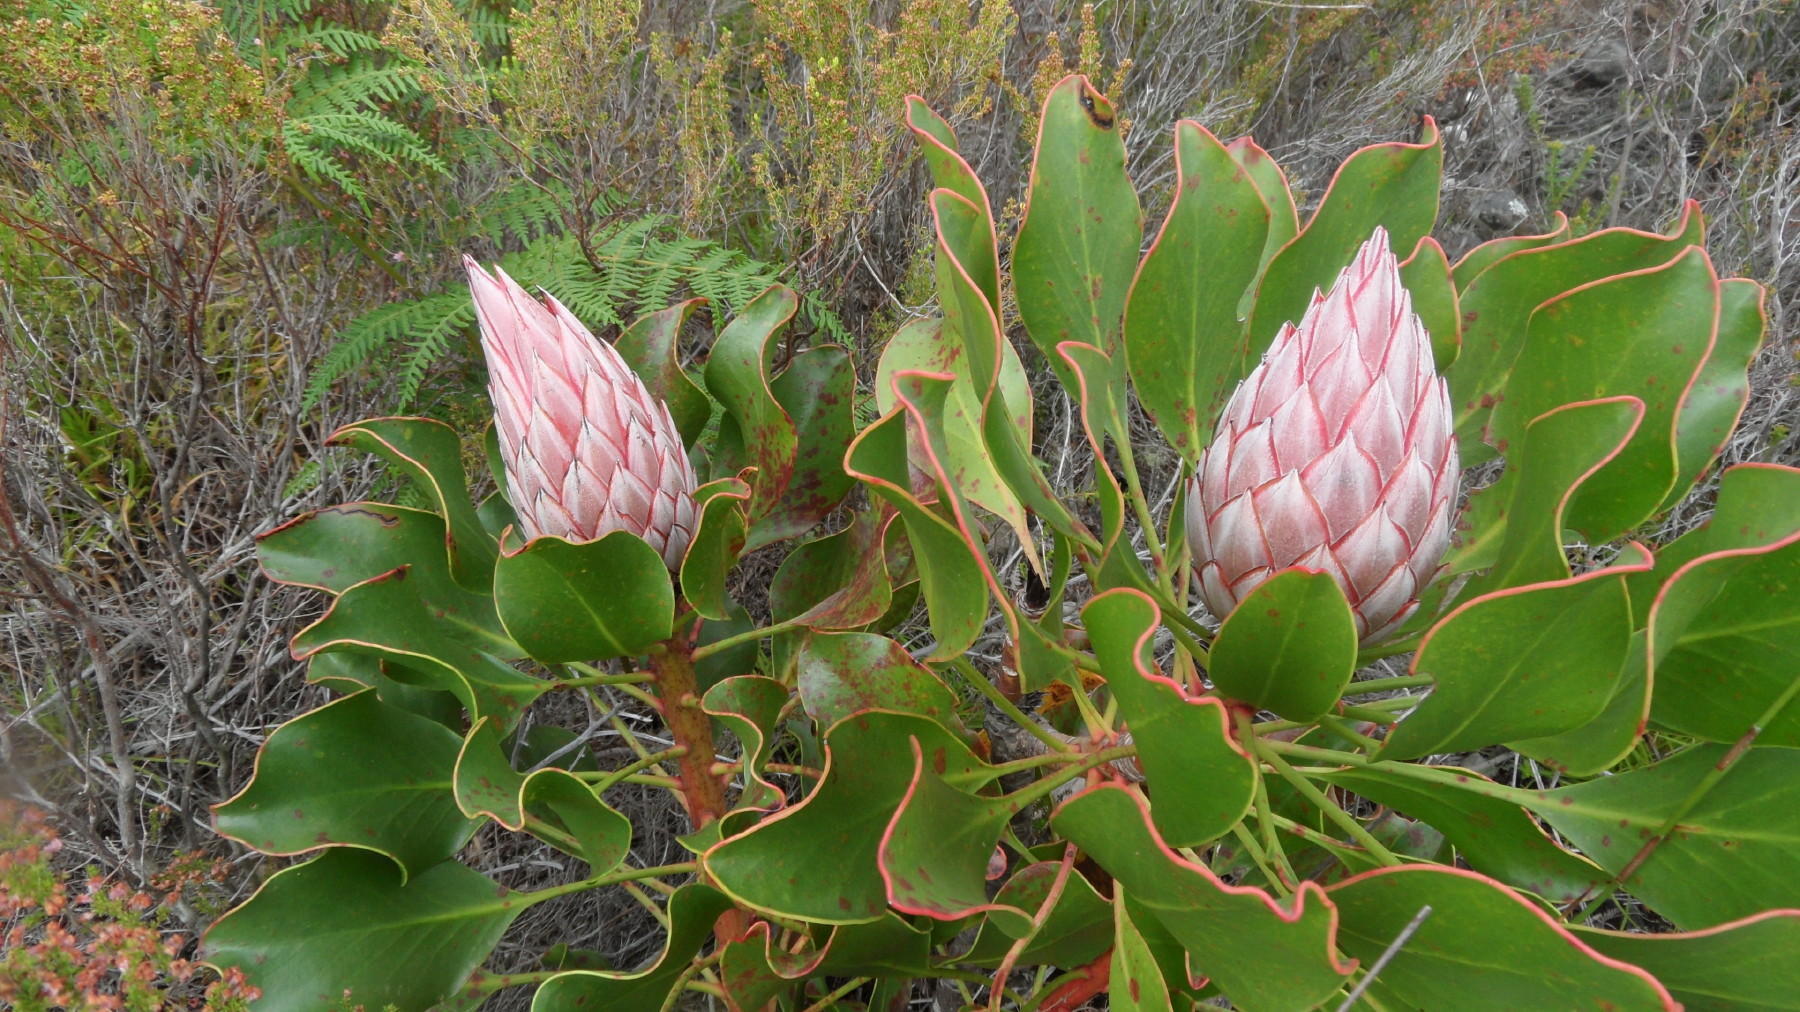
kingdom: Plantae
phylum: Tracheophyta
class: Magnoliopsida
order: Proteales
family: Proteaceae
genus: Protea
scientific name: Protea cynaroides
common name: King protea
